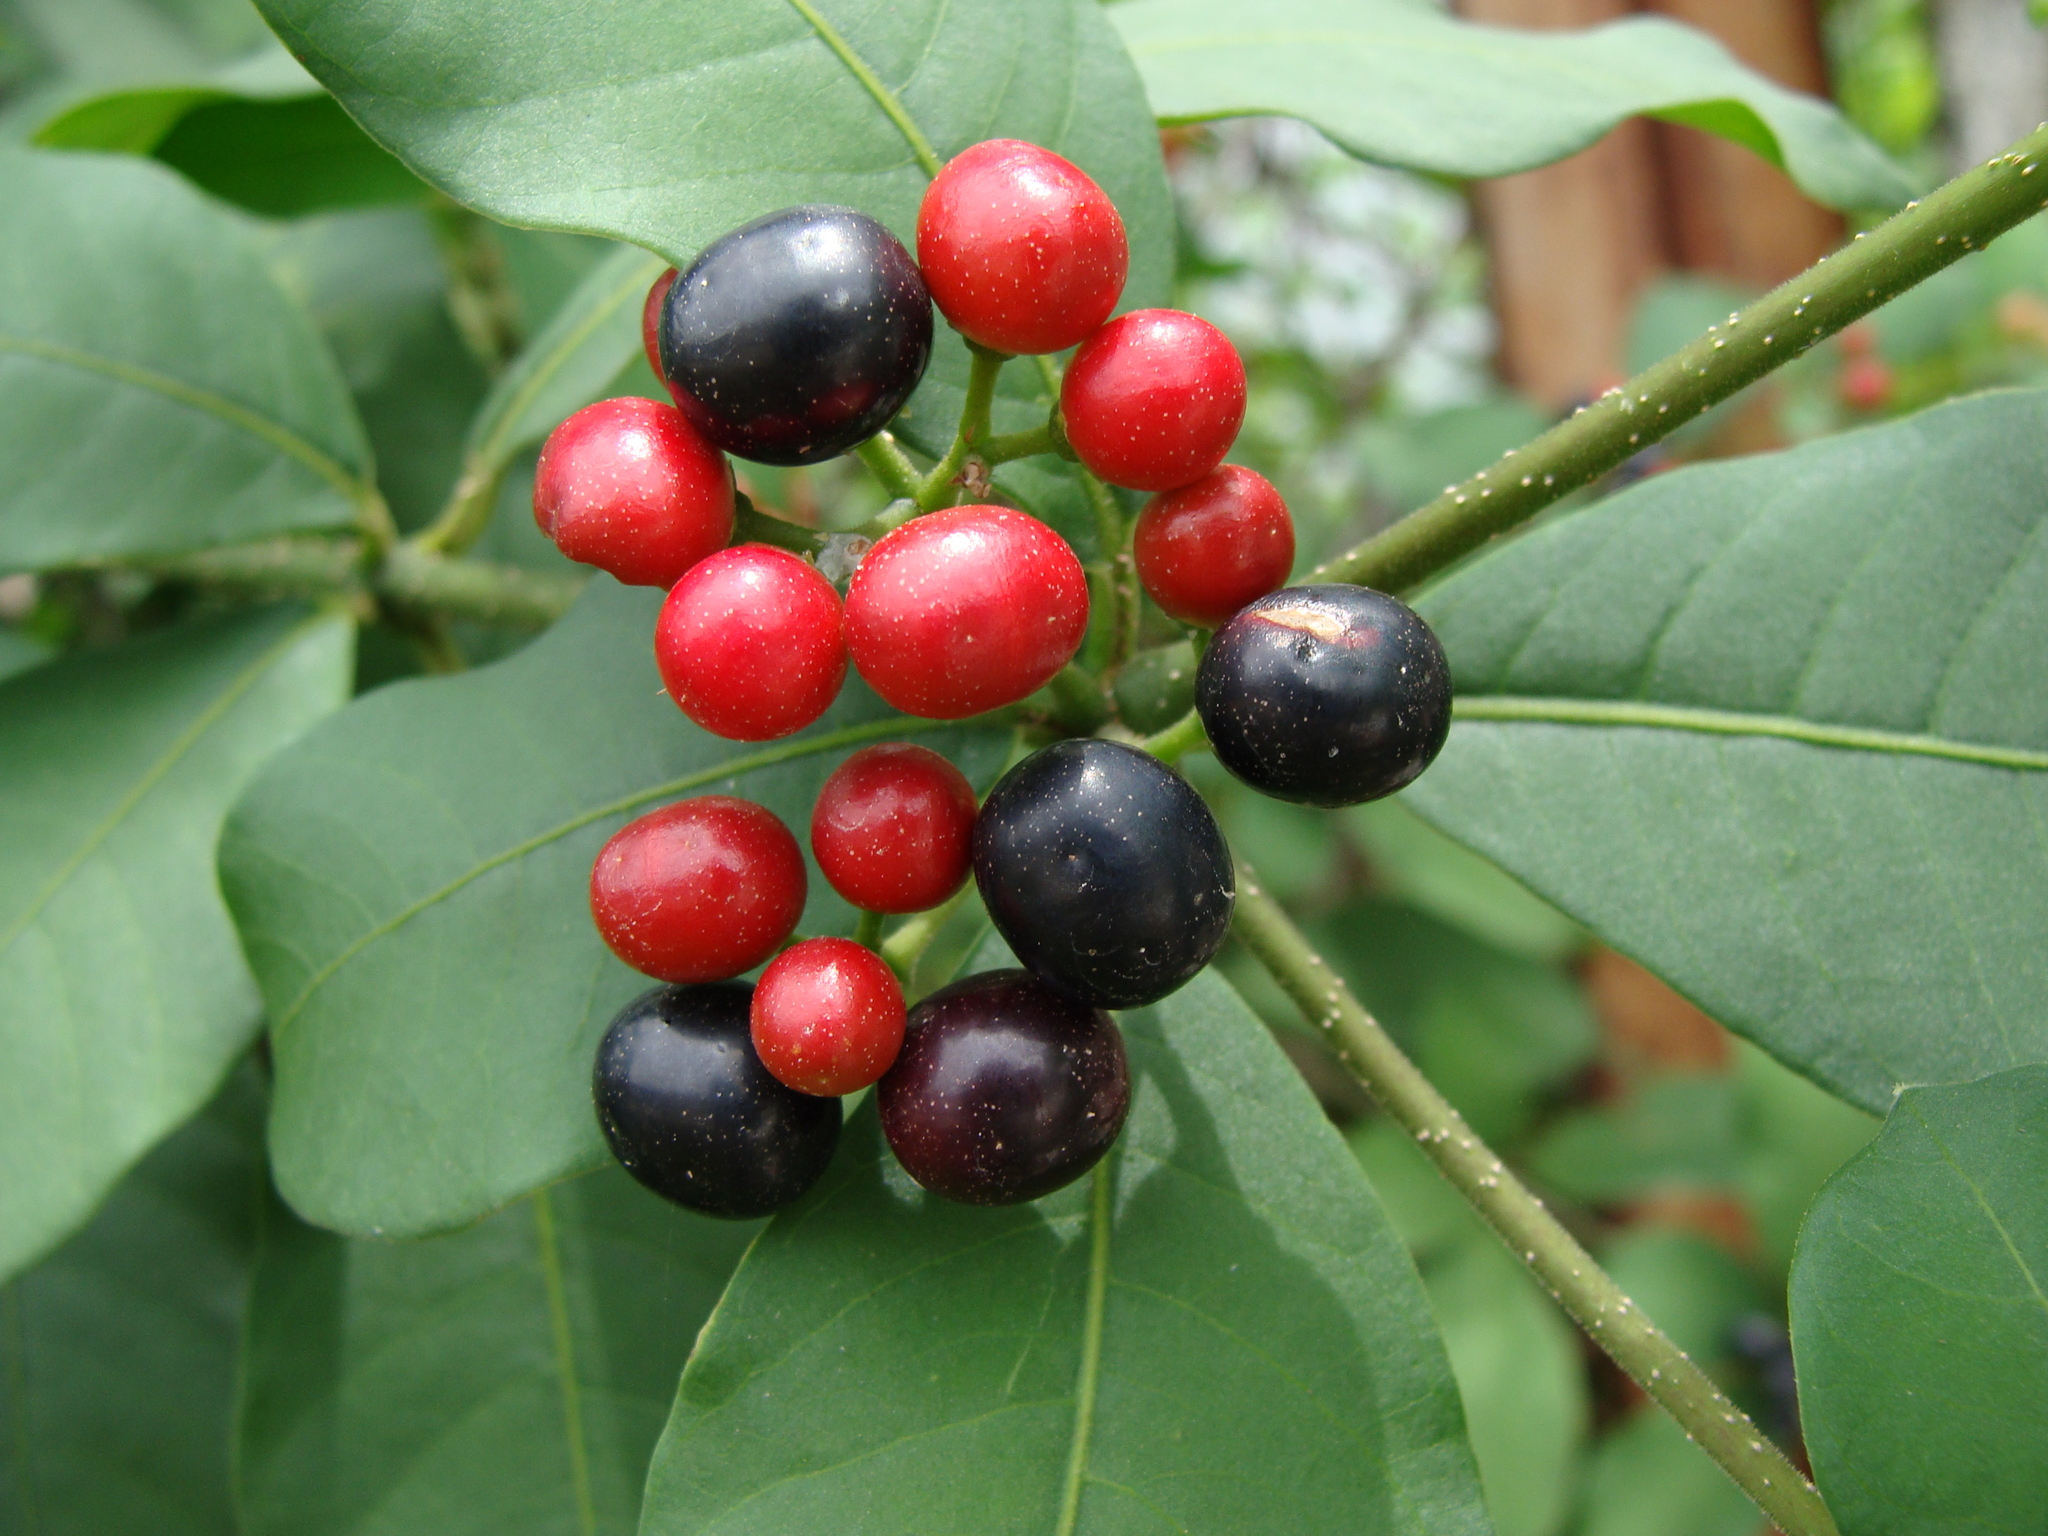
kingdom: Plantae
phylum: Tracheophyta
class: Magnoliopsida
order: Gentianales
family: Apocynaceae
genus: Rauvolfia
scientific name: Rauvolfia tetraphylla
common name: Four-leaf devil-pepper
